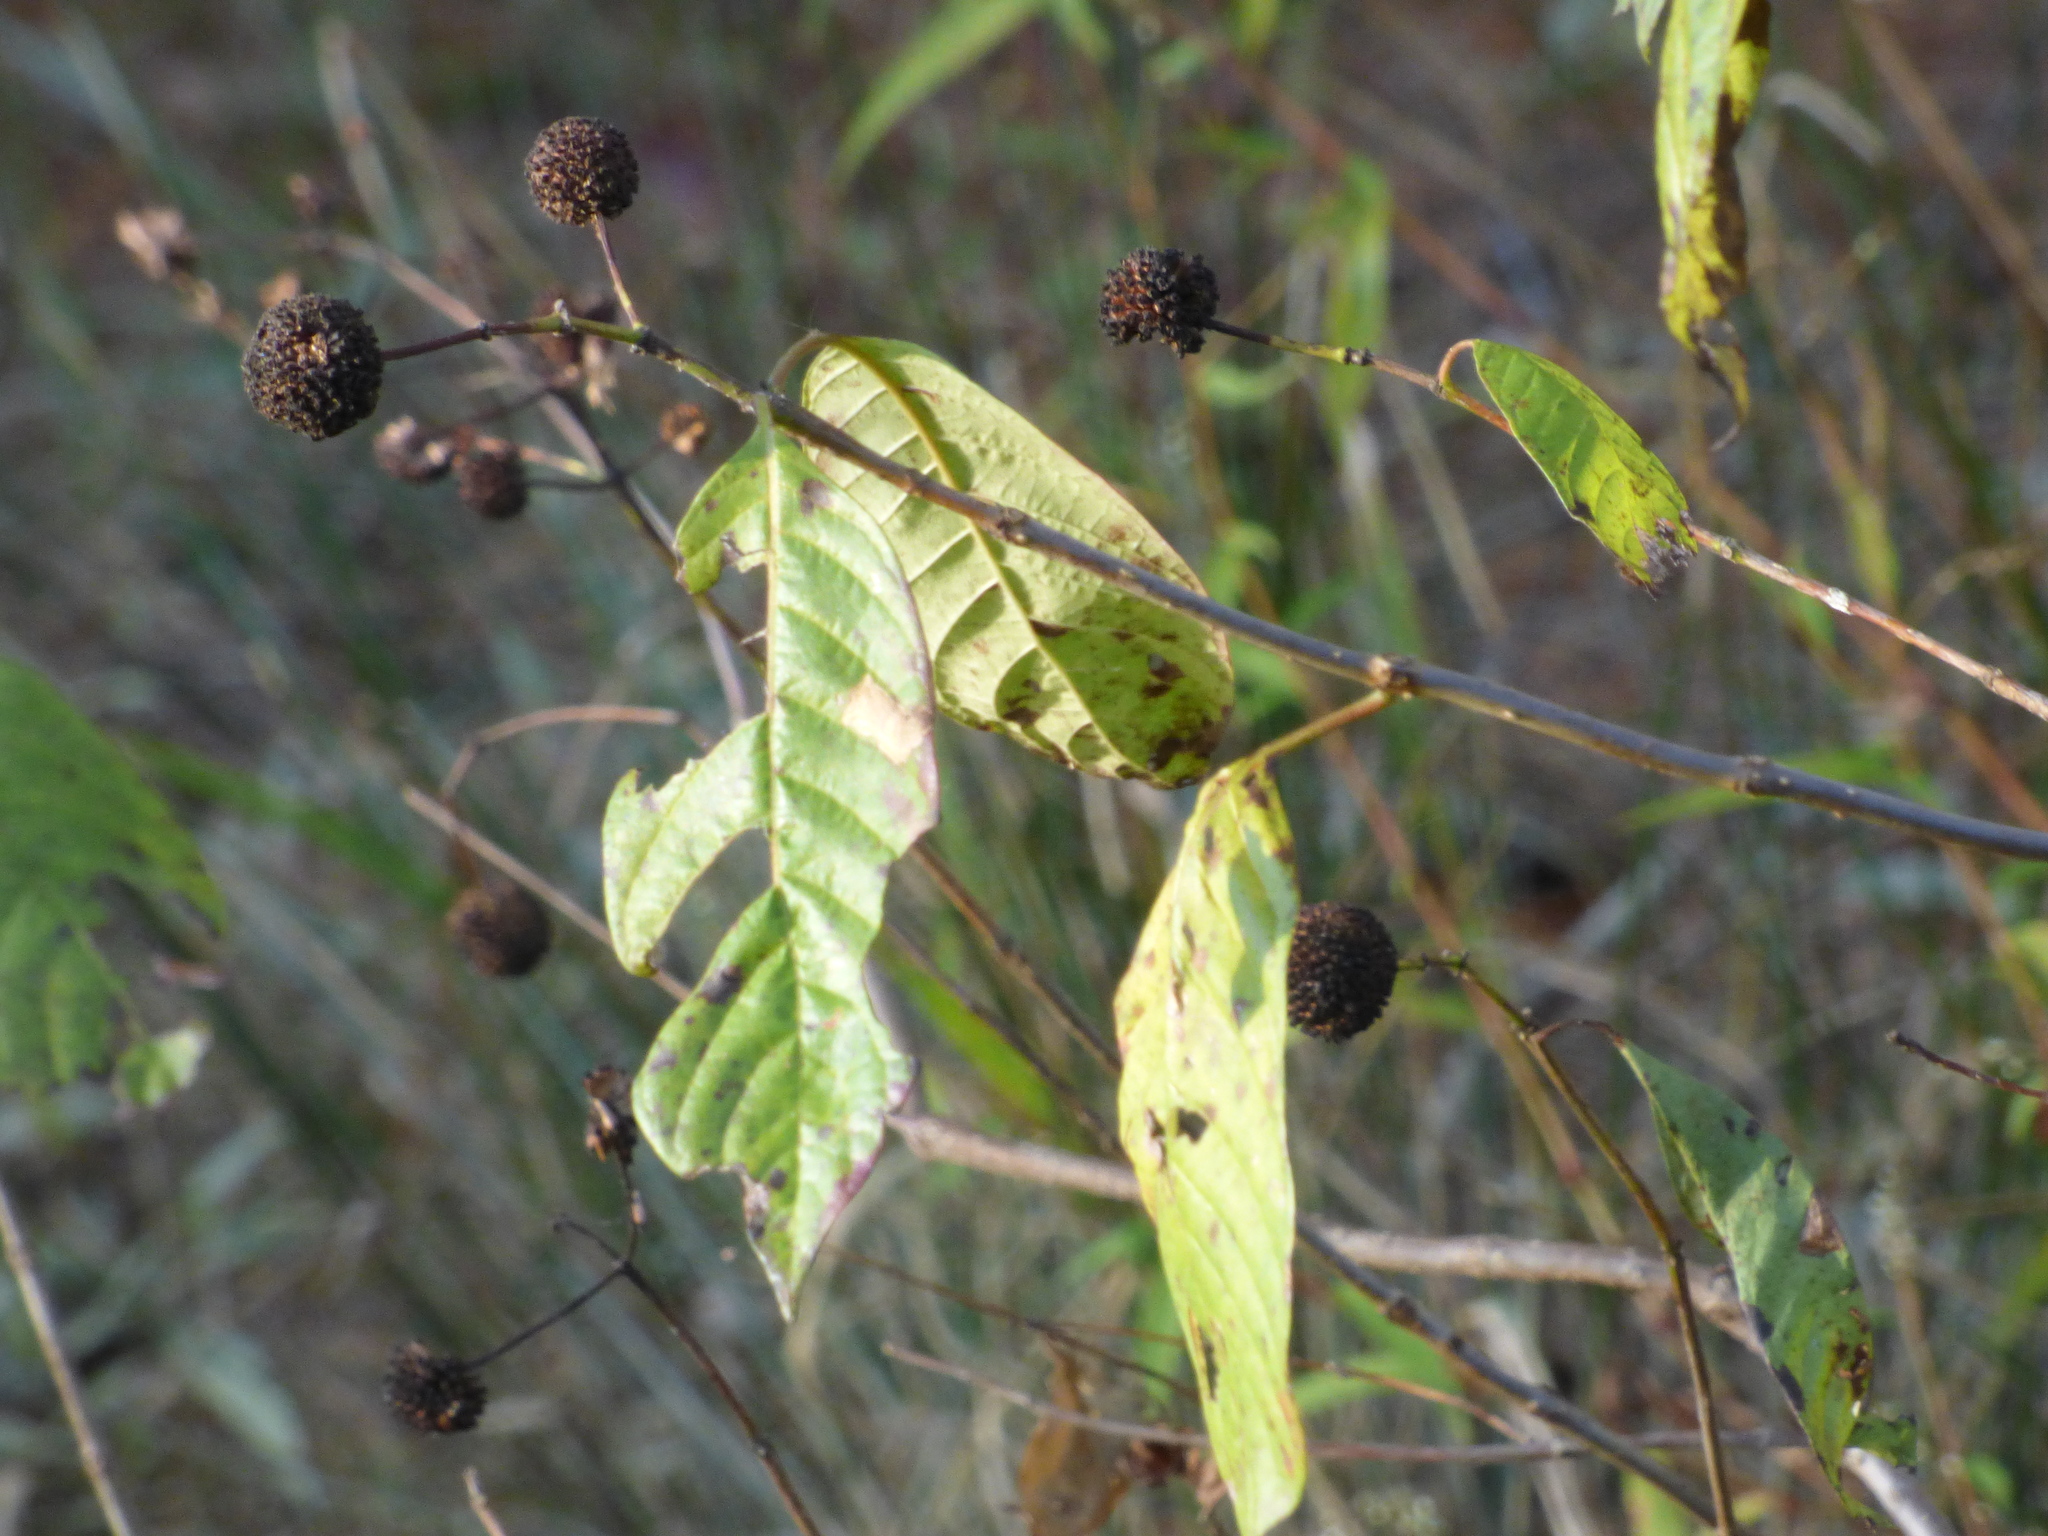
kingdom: Plantae
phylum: Tracheophyta
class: Magnoliopsida
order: Gentianales
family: Rubiaceae
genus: Cephalanthus
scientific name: Cephalanthus occidentalis
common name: Button-willow
